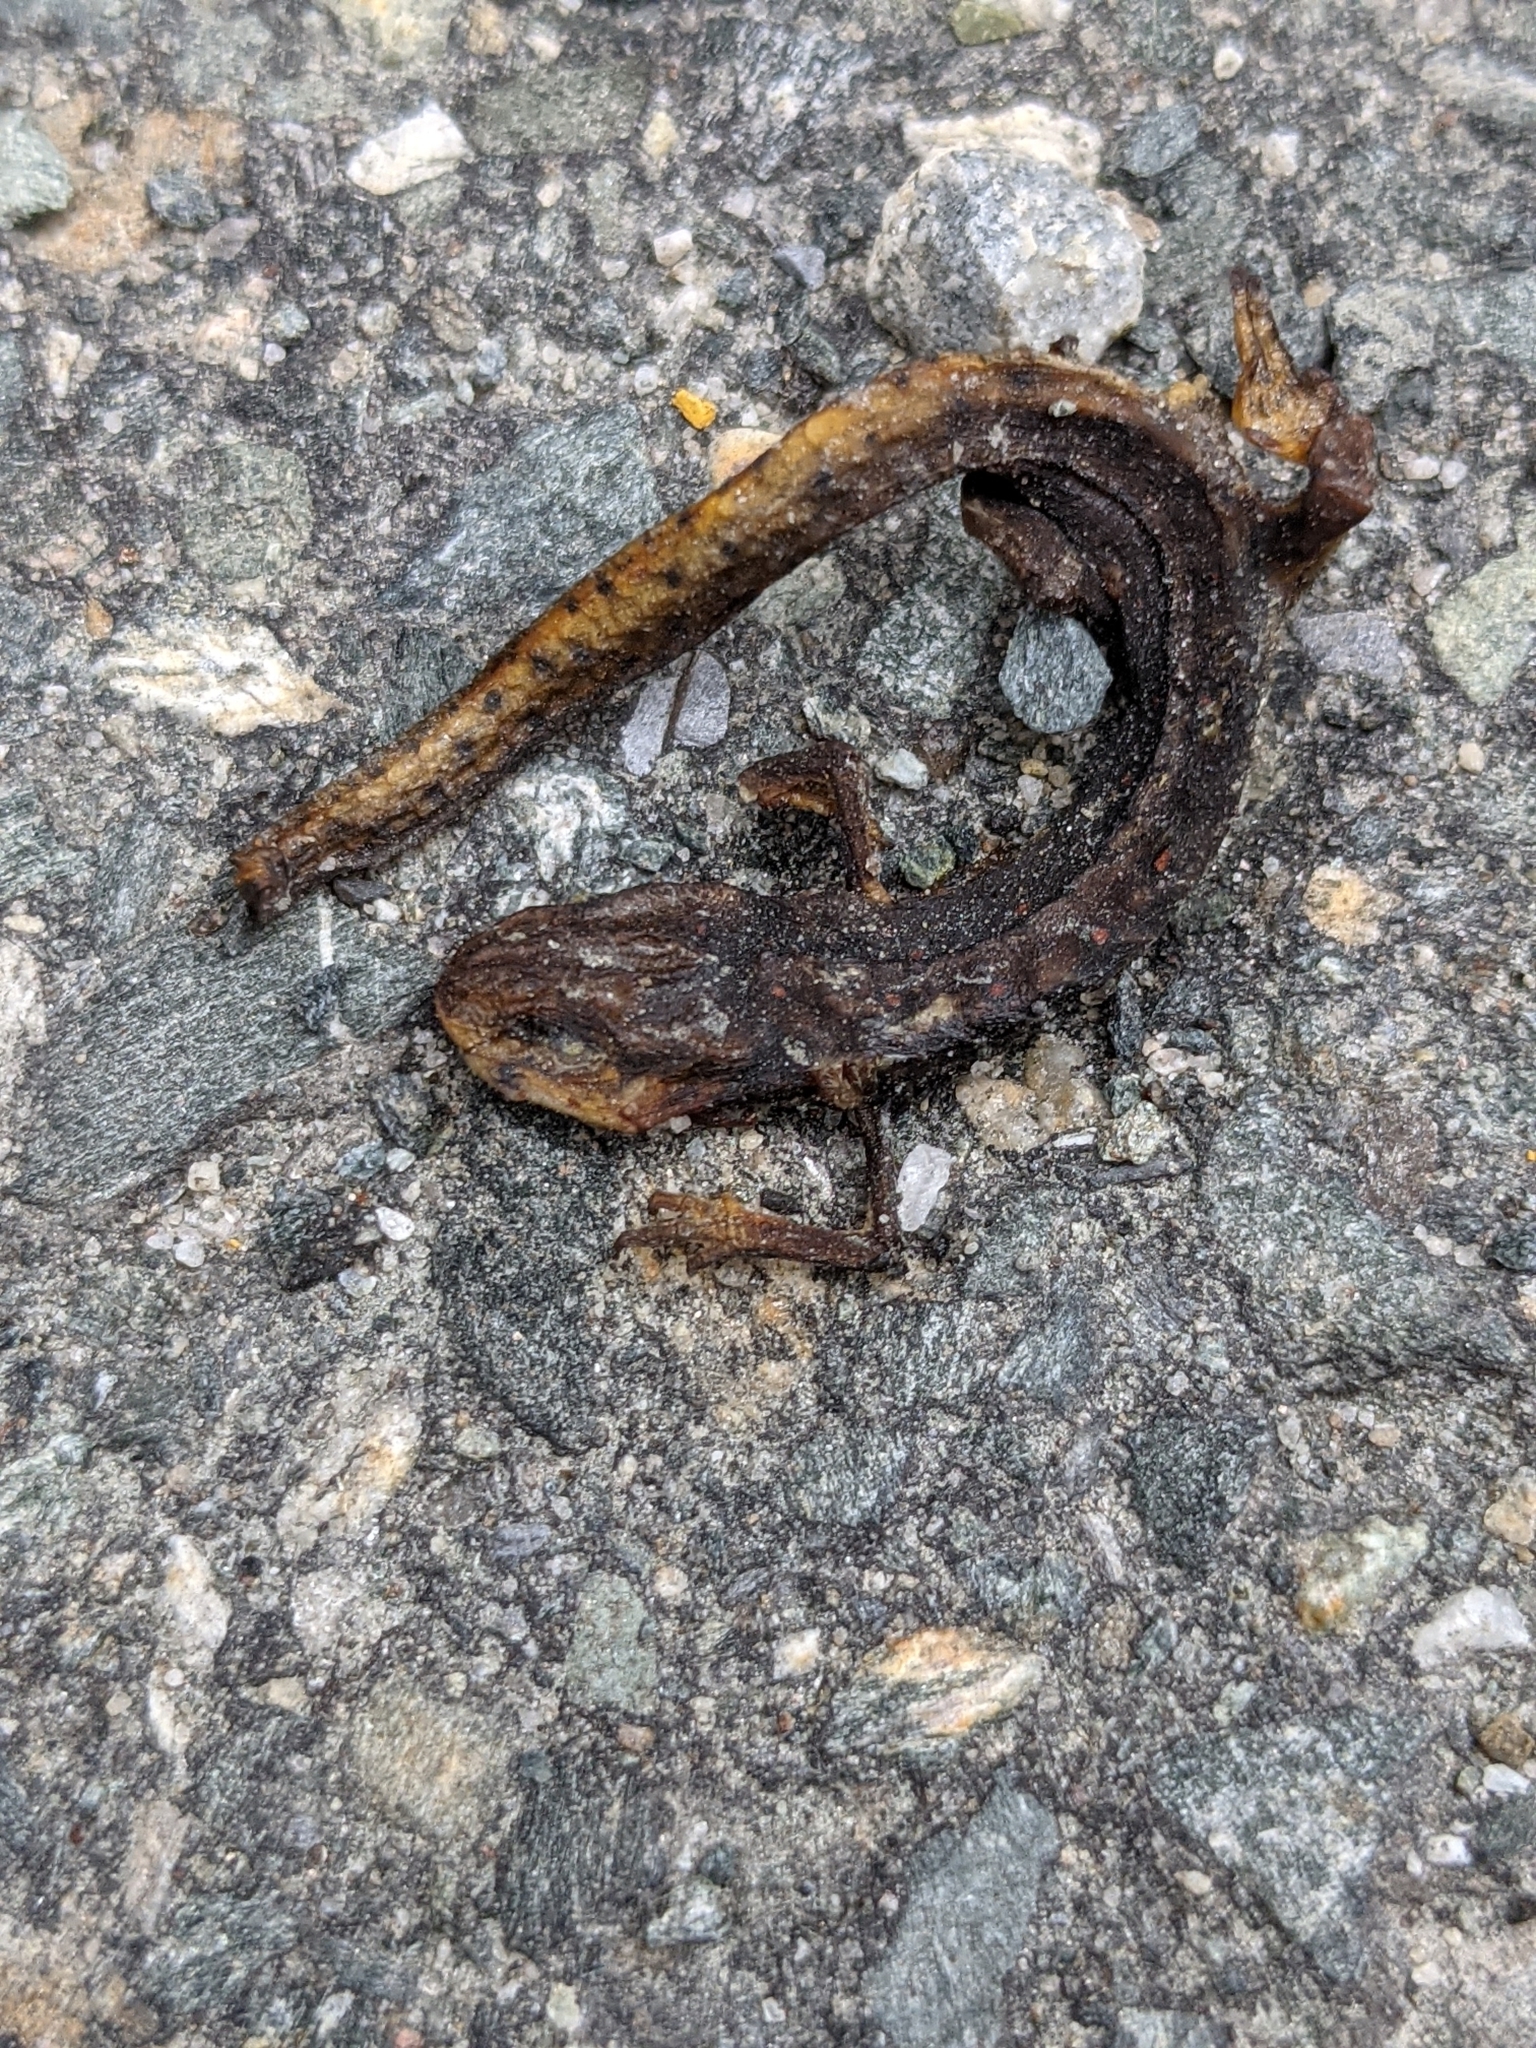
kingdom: Animalia
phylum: Chordata
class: Amphibia
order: Caudata
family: Salamandridae
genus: Notophthalmus
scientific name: Notophthalmus viridescens
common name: Eastern newt
